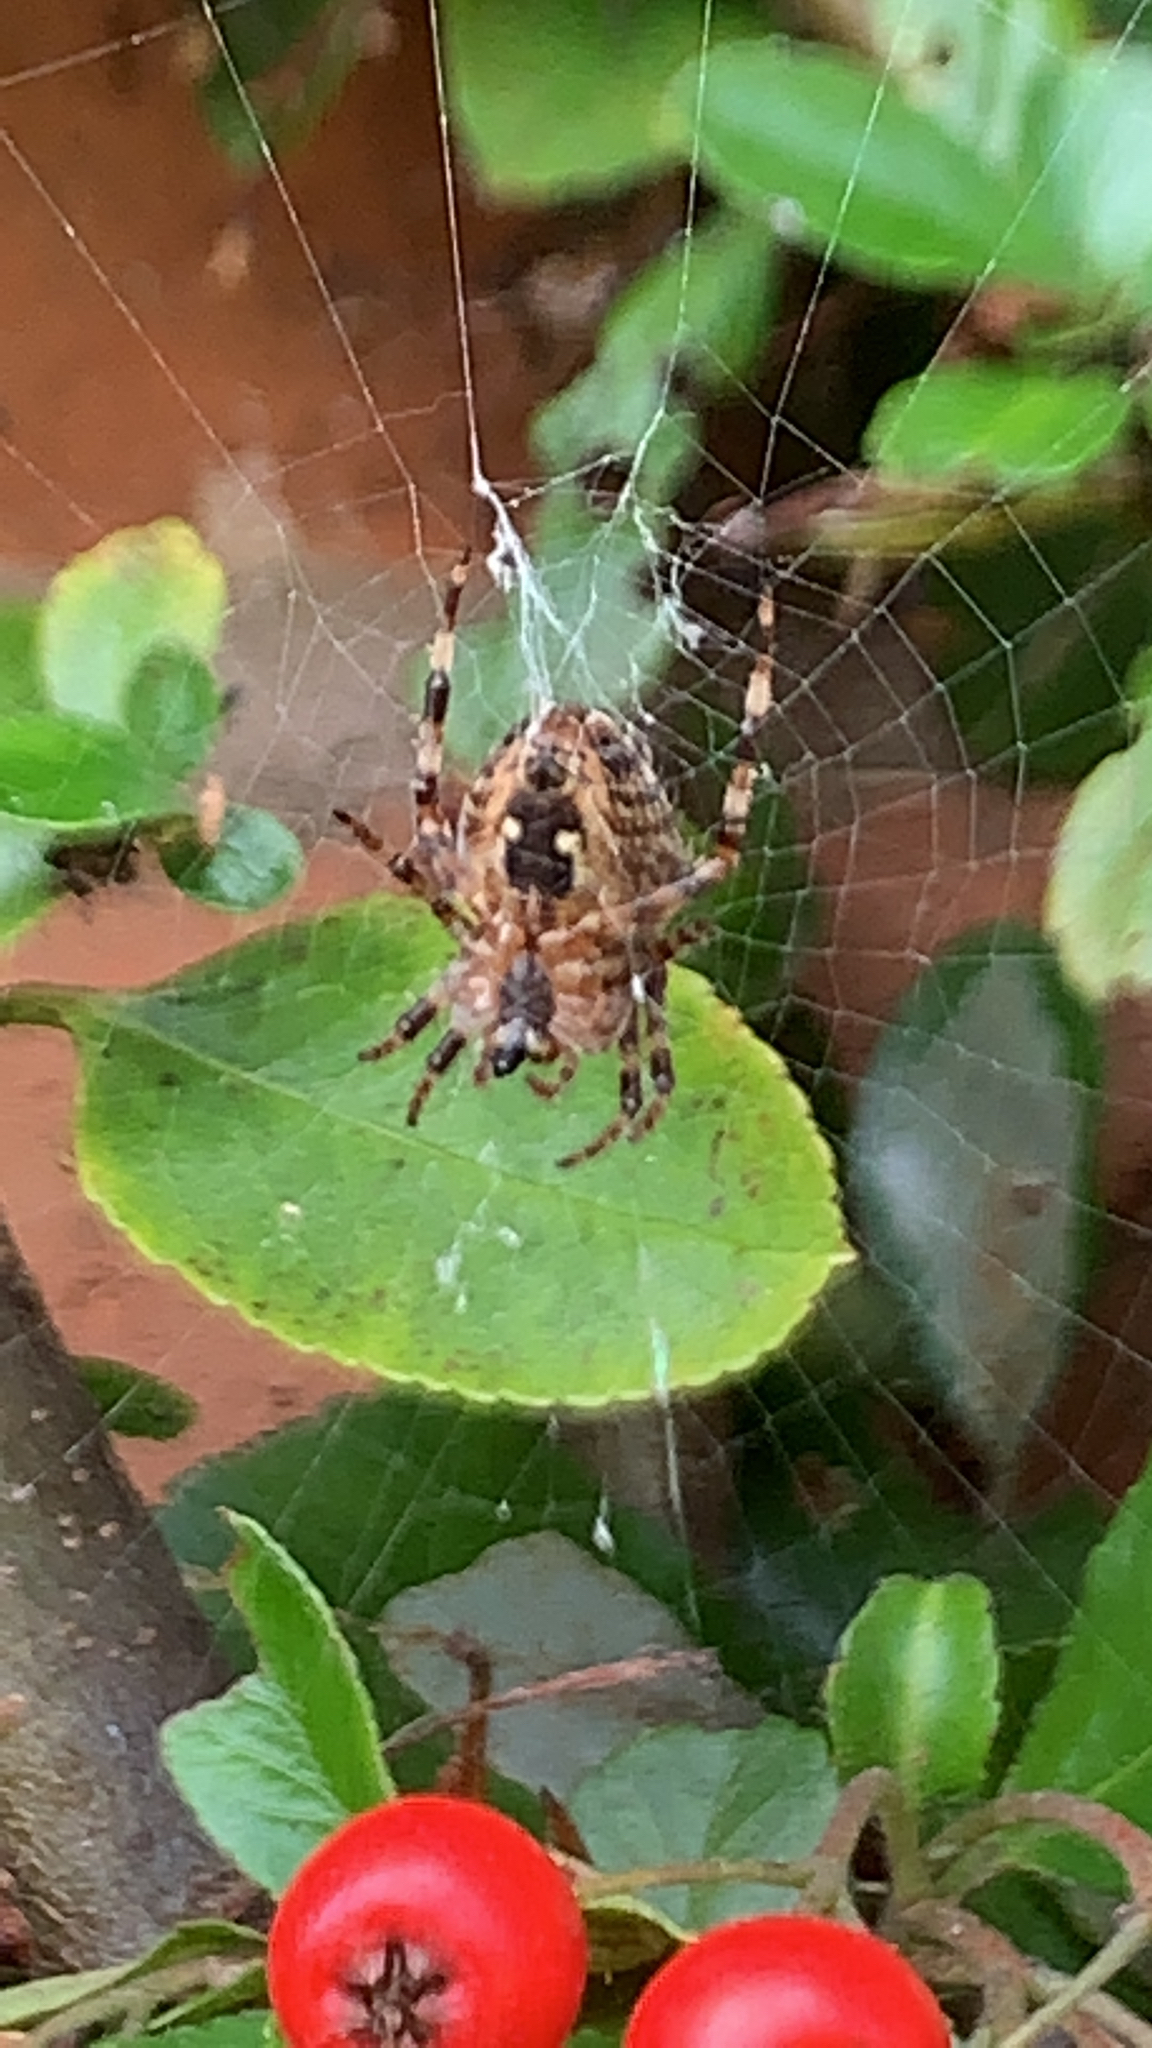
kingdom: Animalia
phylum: Arthropoda
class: Arachnida
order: Araneae
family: Araneidae
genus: Araneus
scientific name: Araneus diadematus
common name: Cross orbweaver
